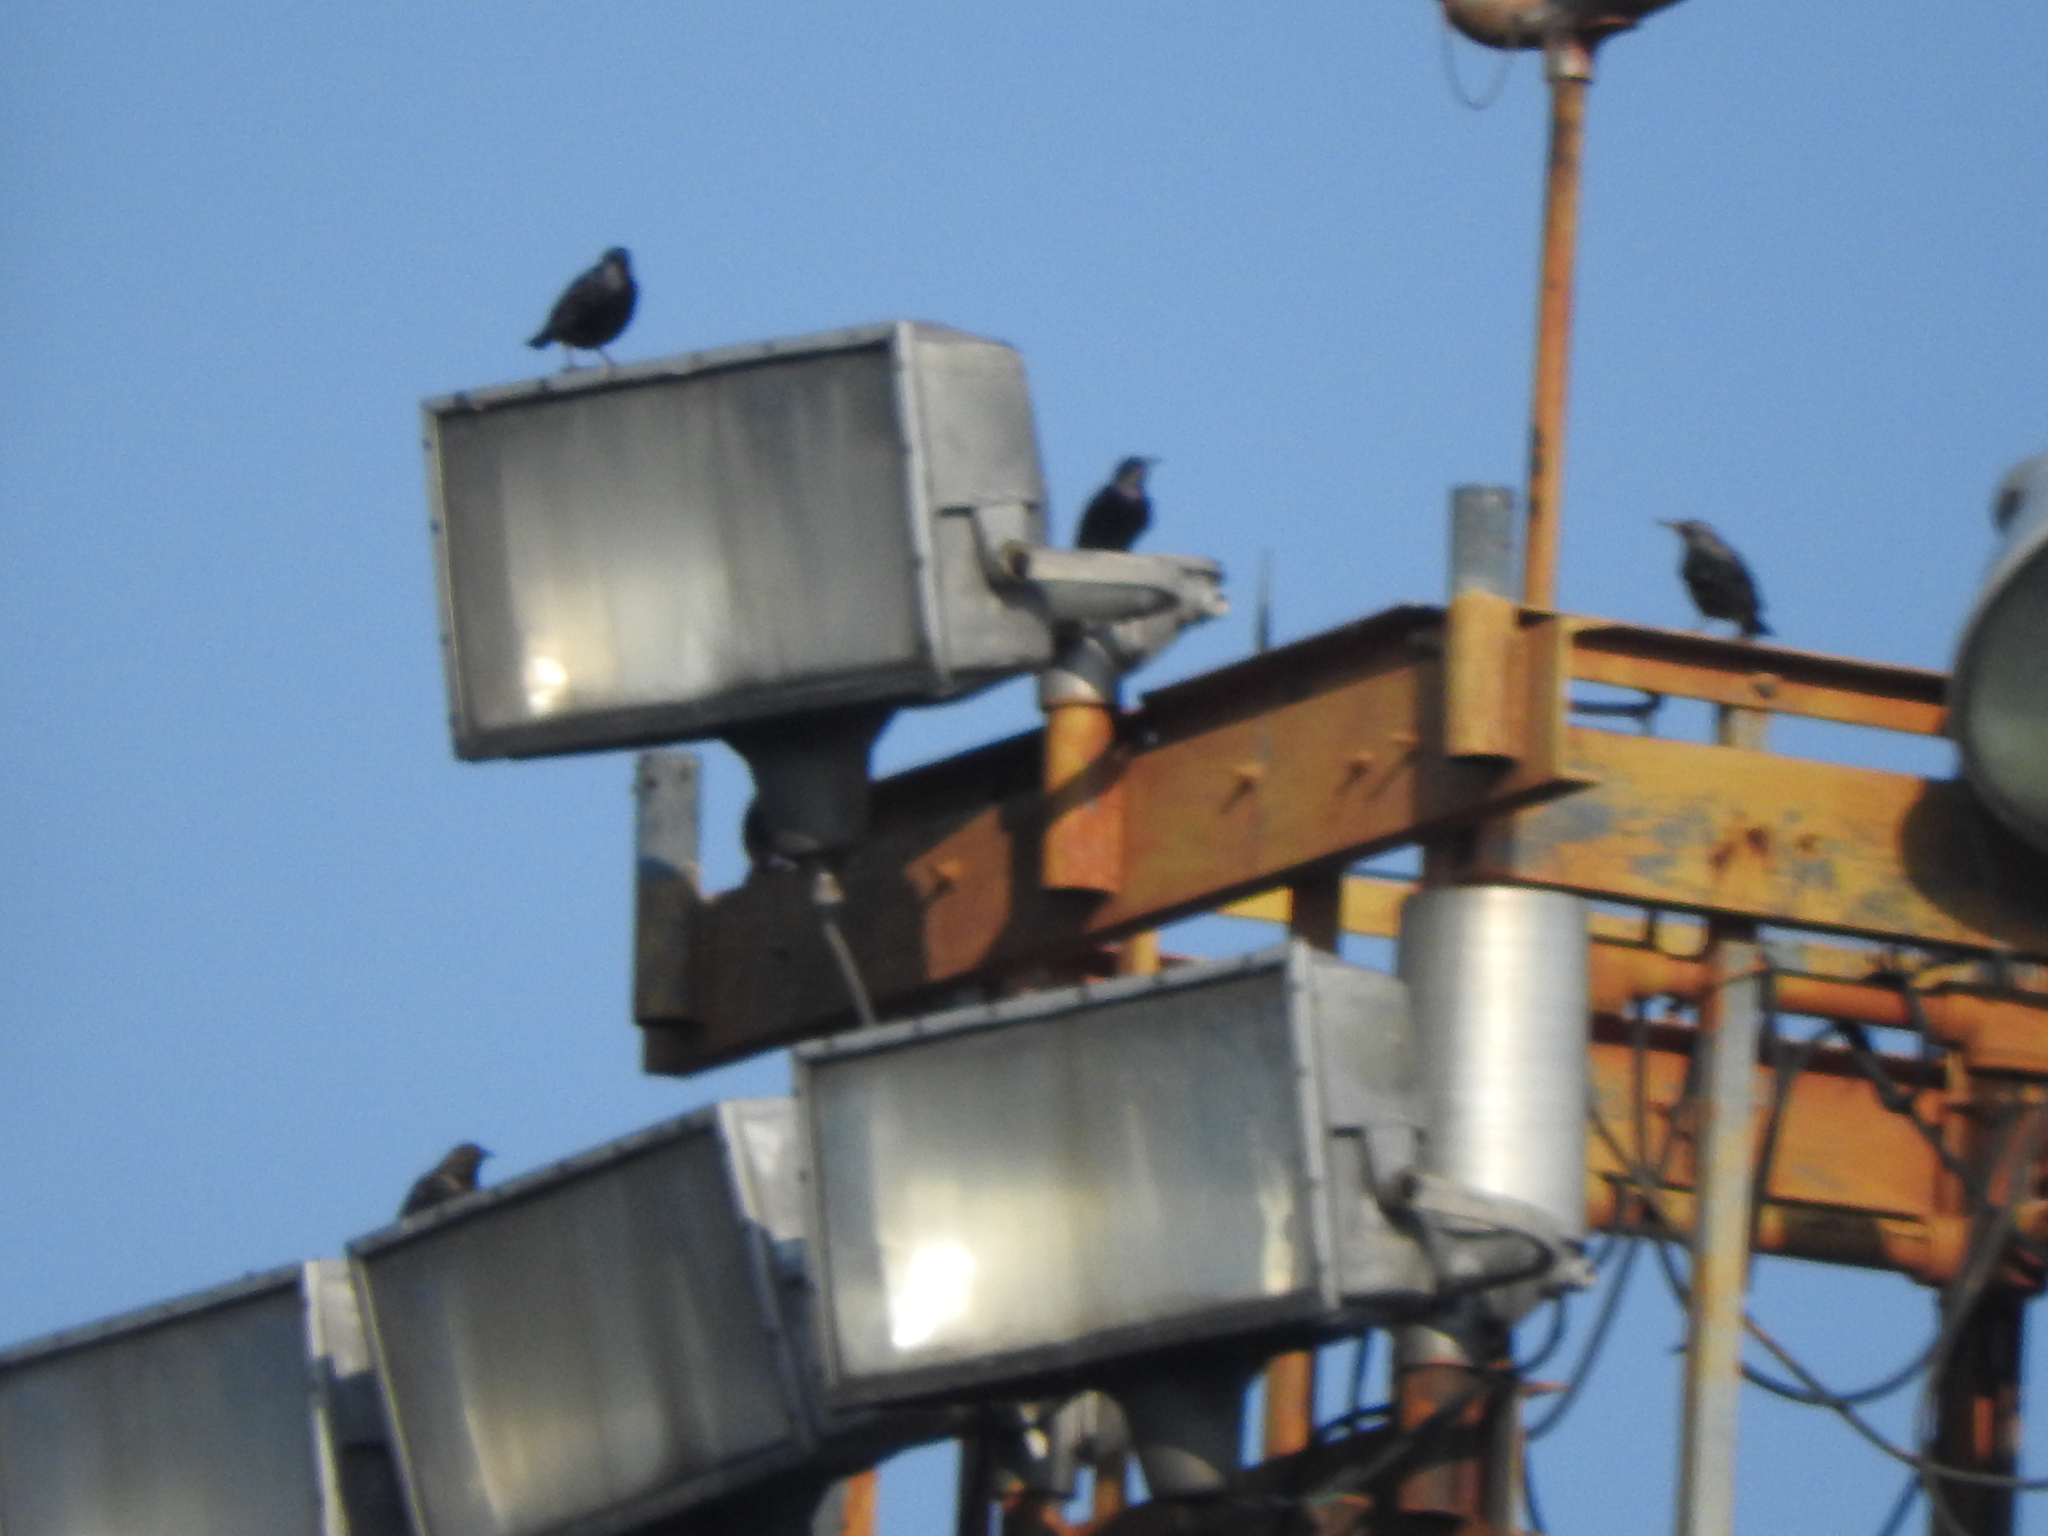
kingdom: Animalia
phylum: Chordata
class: Aves
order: Passeriformes
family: Sturnidae
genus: Sturnus
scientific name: Sturnus vulgaris
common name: Common starling
